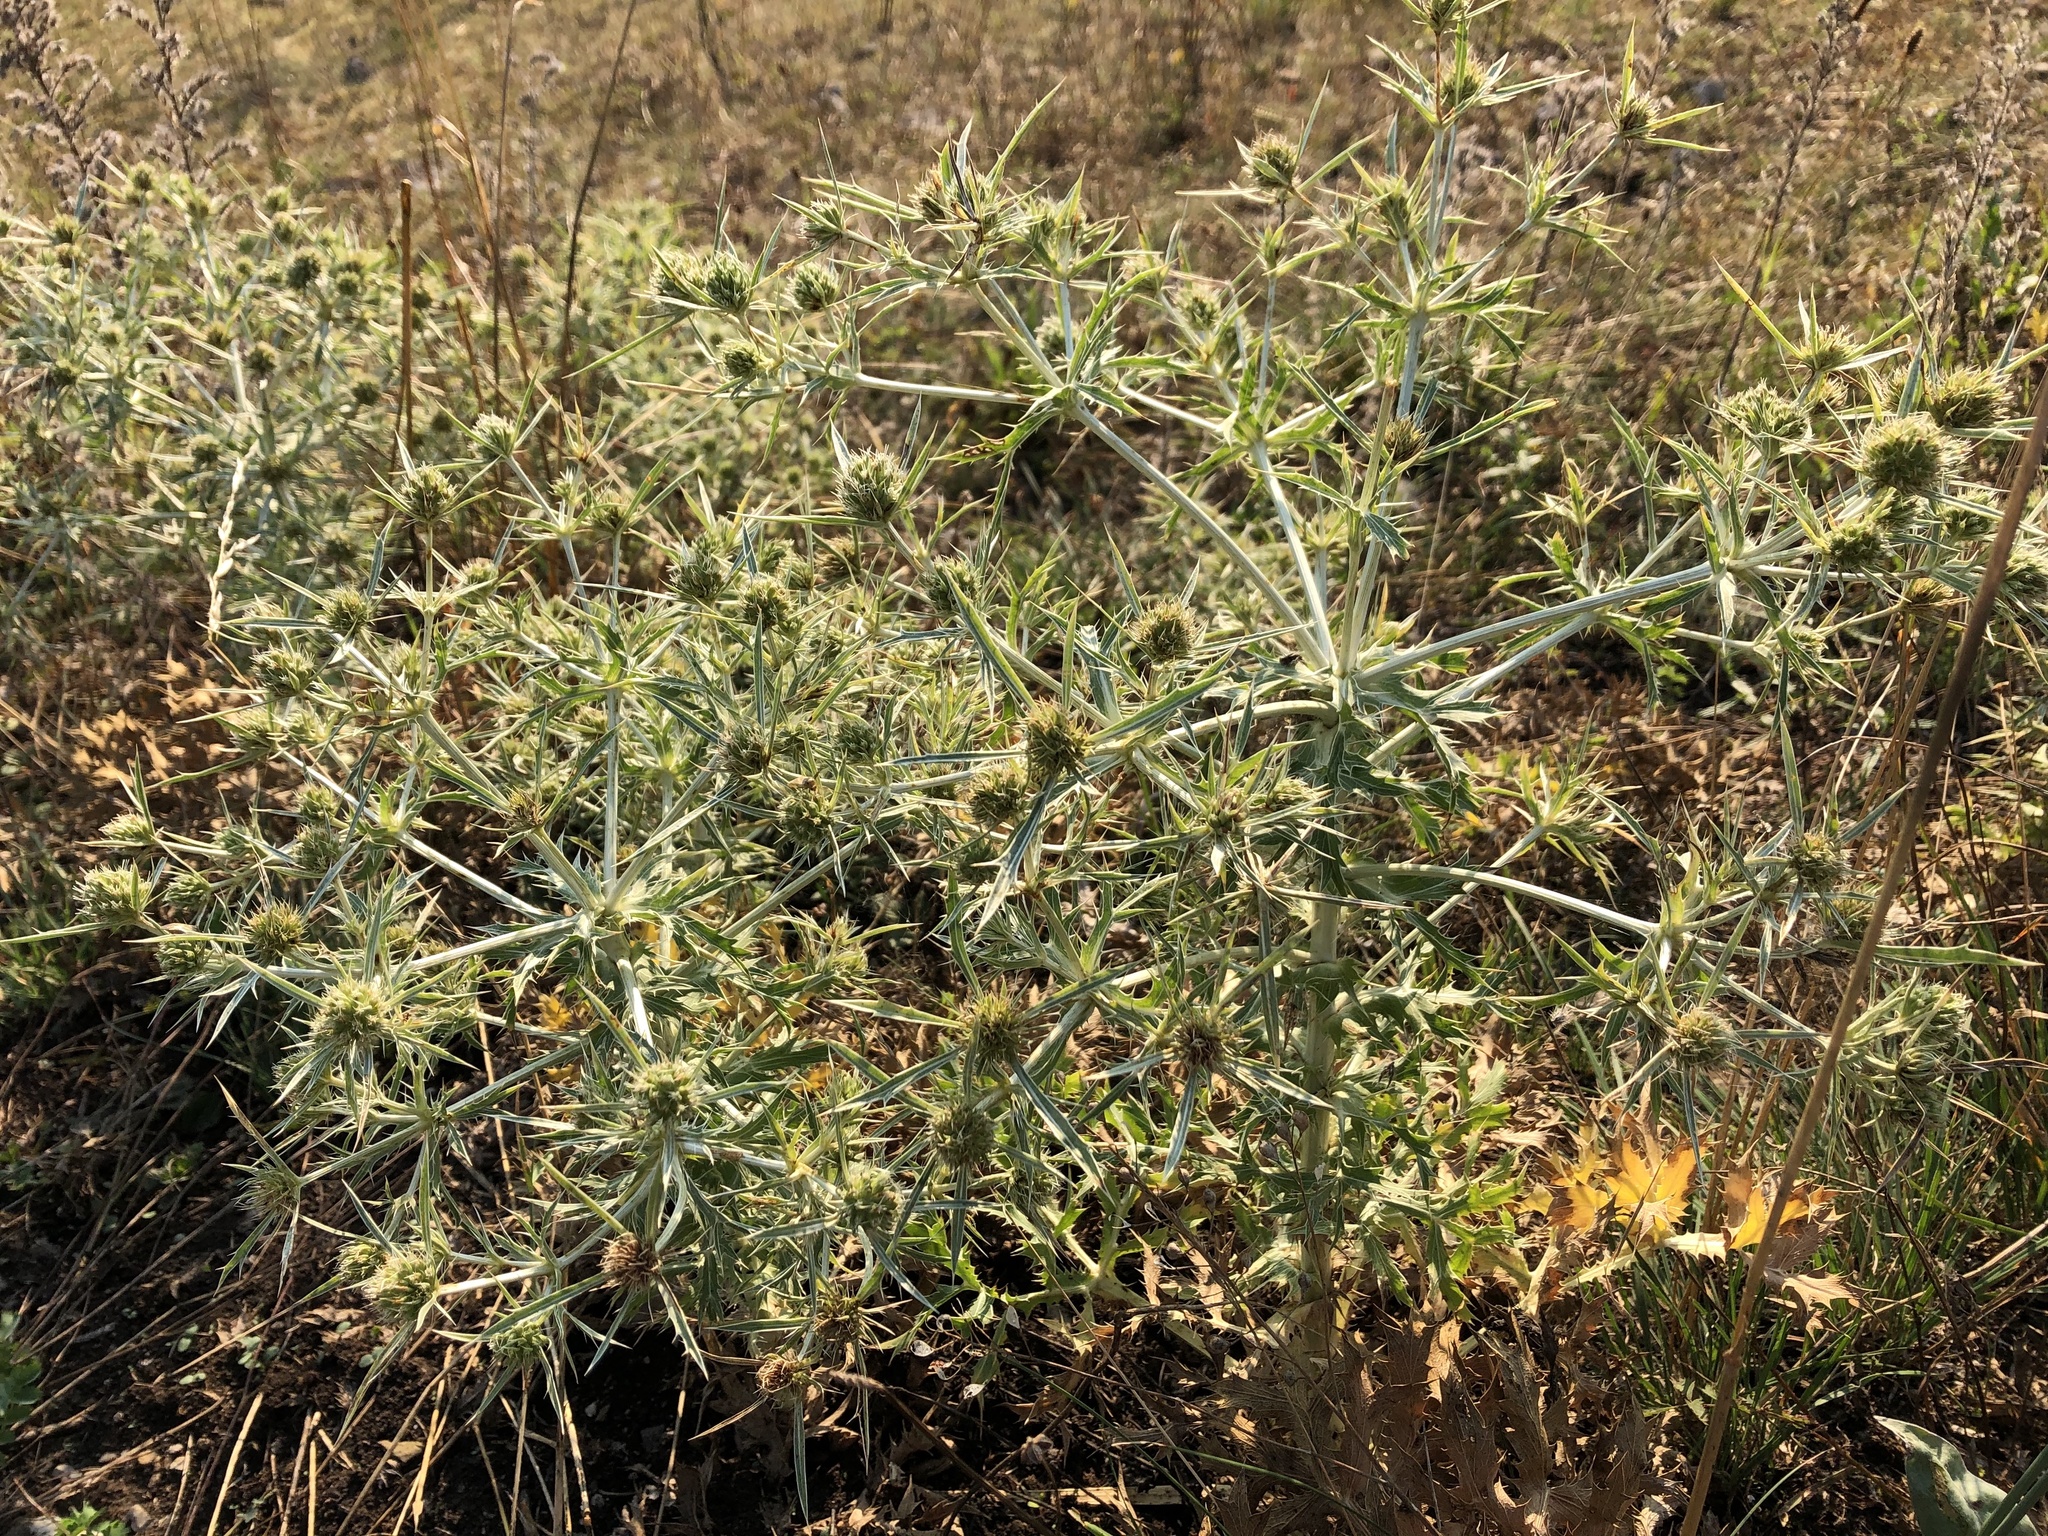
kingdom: Plantae
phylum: Tracheophyta
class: Magnoliopsida
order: Apiales
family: Apiaceae
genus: Eryngium
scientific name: Eryngium campestre
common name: Field eryngo
